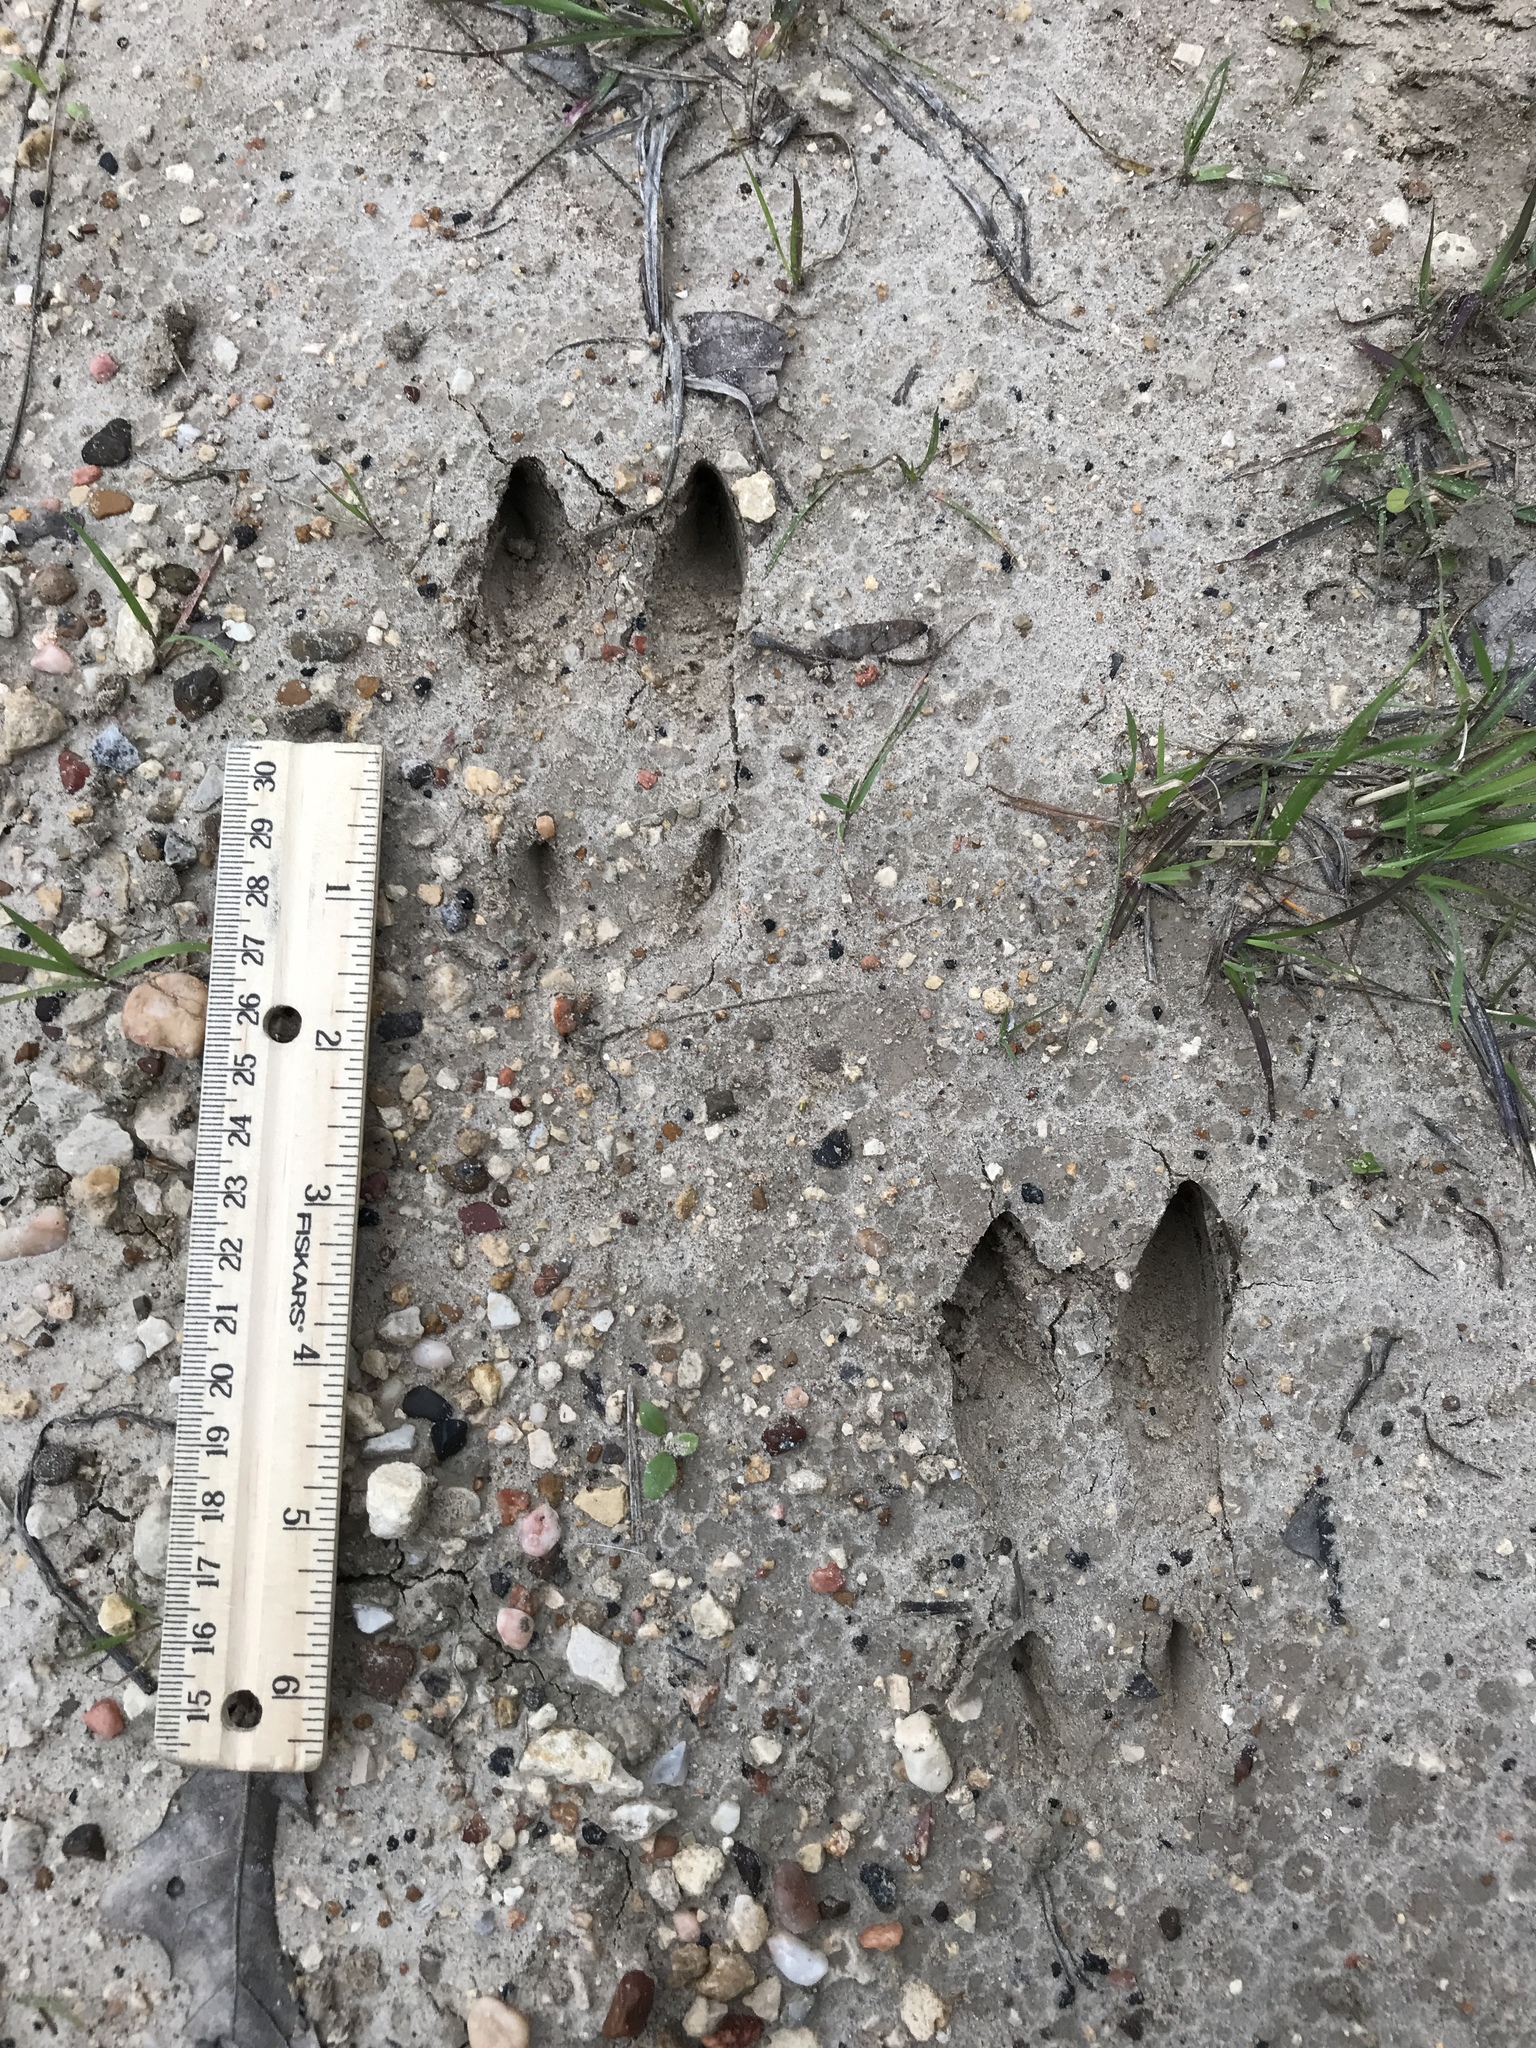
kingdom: Animalia
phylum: Chordata
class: Mammalia
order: Artiodactyla
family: Cervidae
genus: Odocoileus
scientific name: Odocoileus virginianus
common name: White-tailed deer
